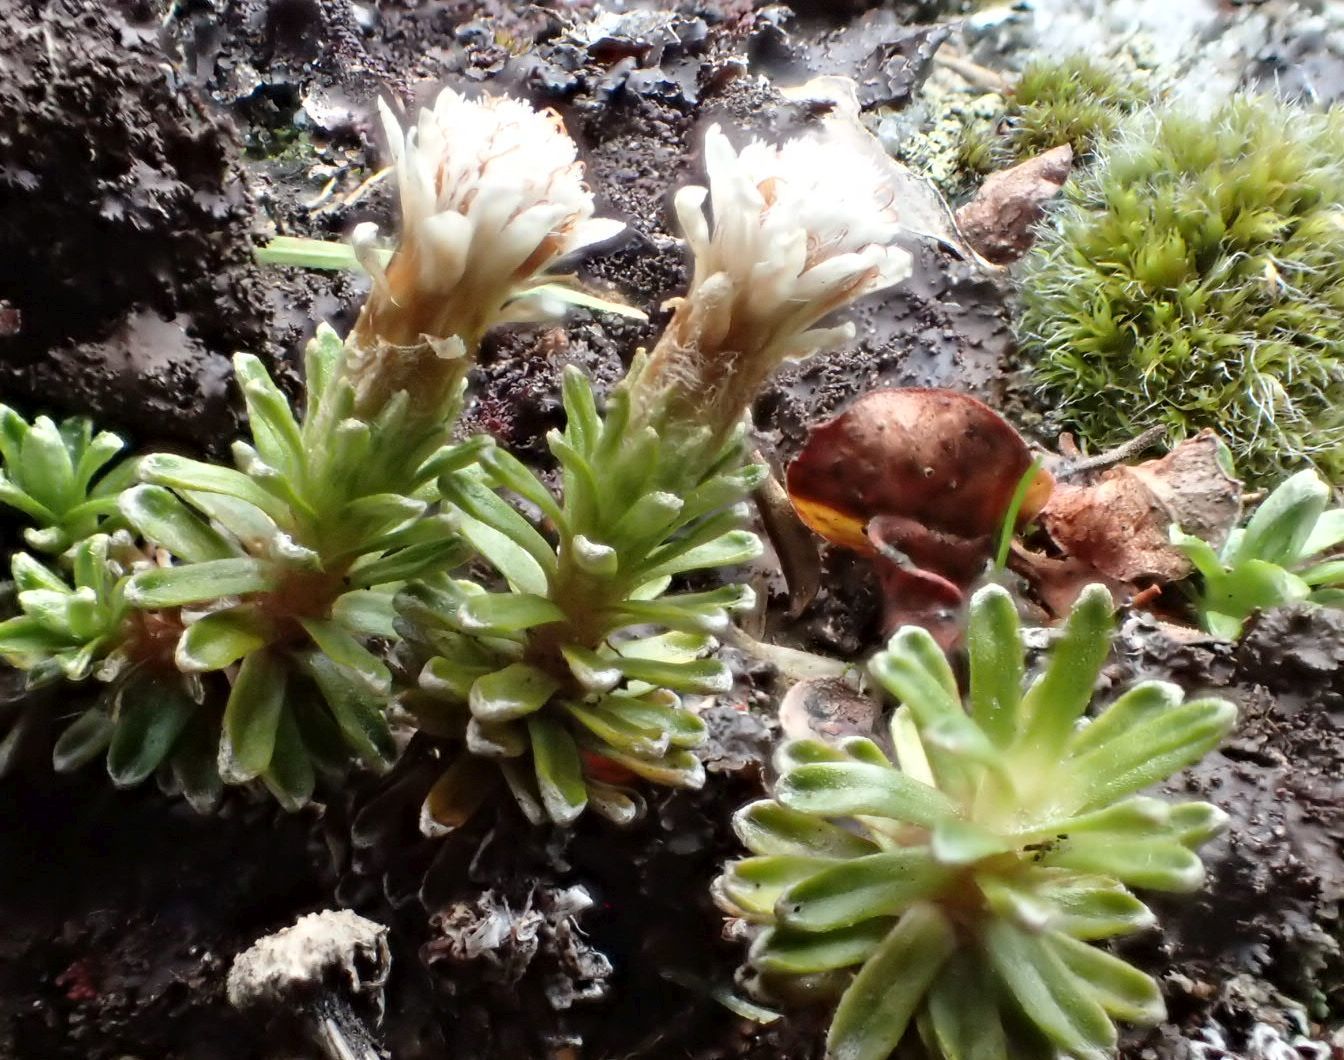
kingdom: Plantae
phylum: Tracheophyta
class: Magnoliopsida
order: Asterales
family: Asteraceae
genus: Raoulia
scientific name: Raoulia glabra
